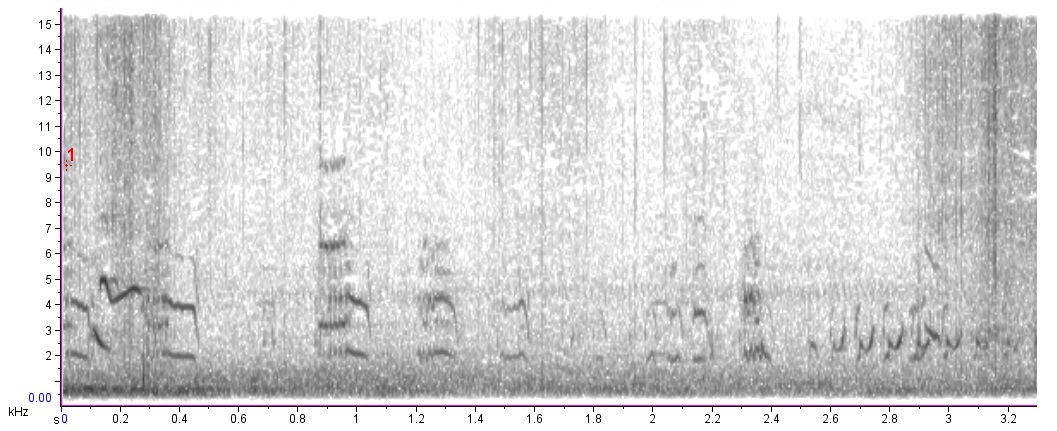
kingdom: Animalia
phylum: Chordata
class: Aves
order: Charadriiformes
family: Scolopacidae
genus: Calidris
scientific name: Calidris minutilla
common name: Least sandpiper
